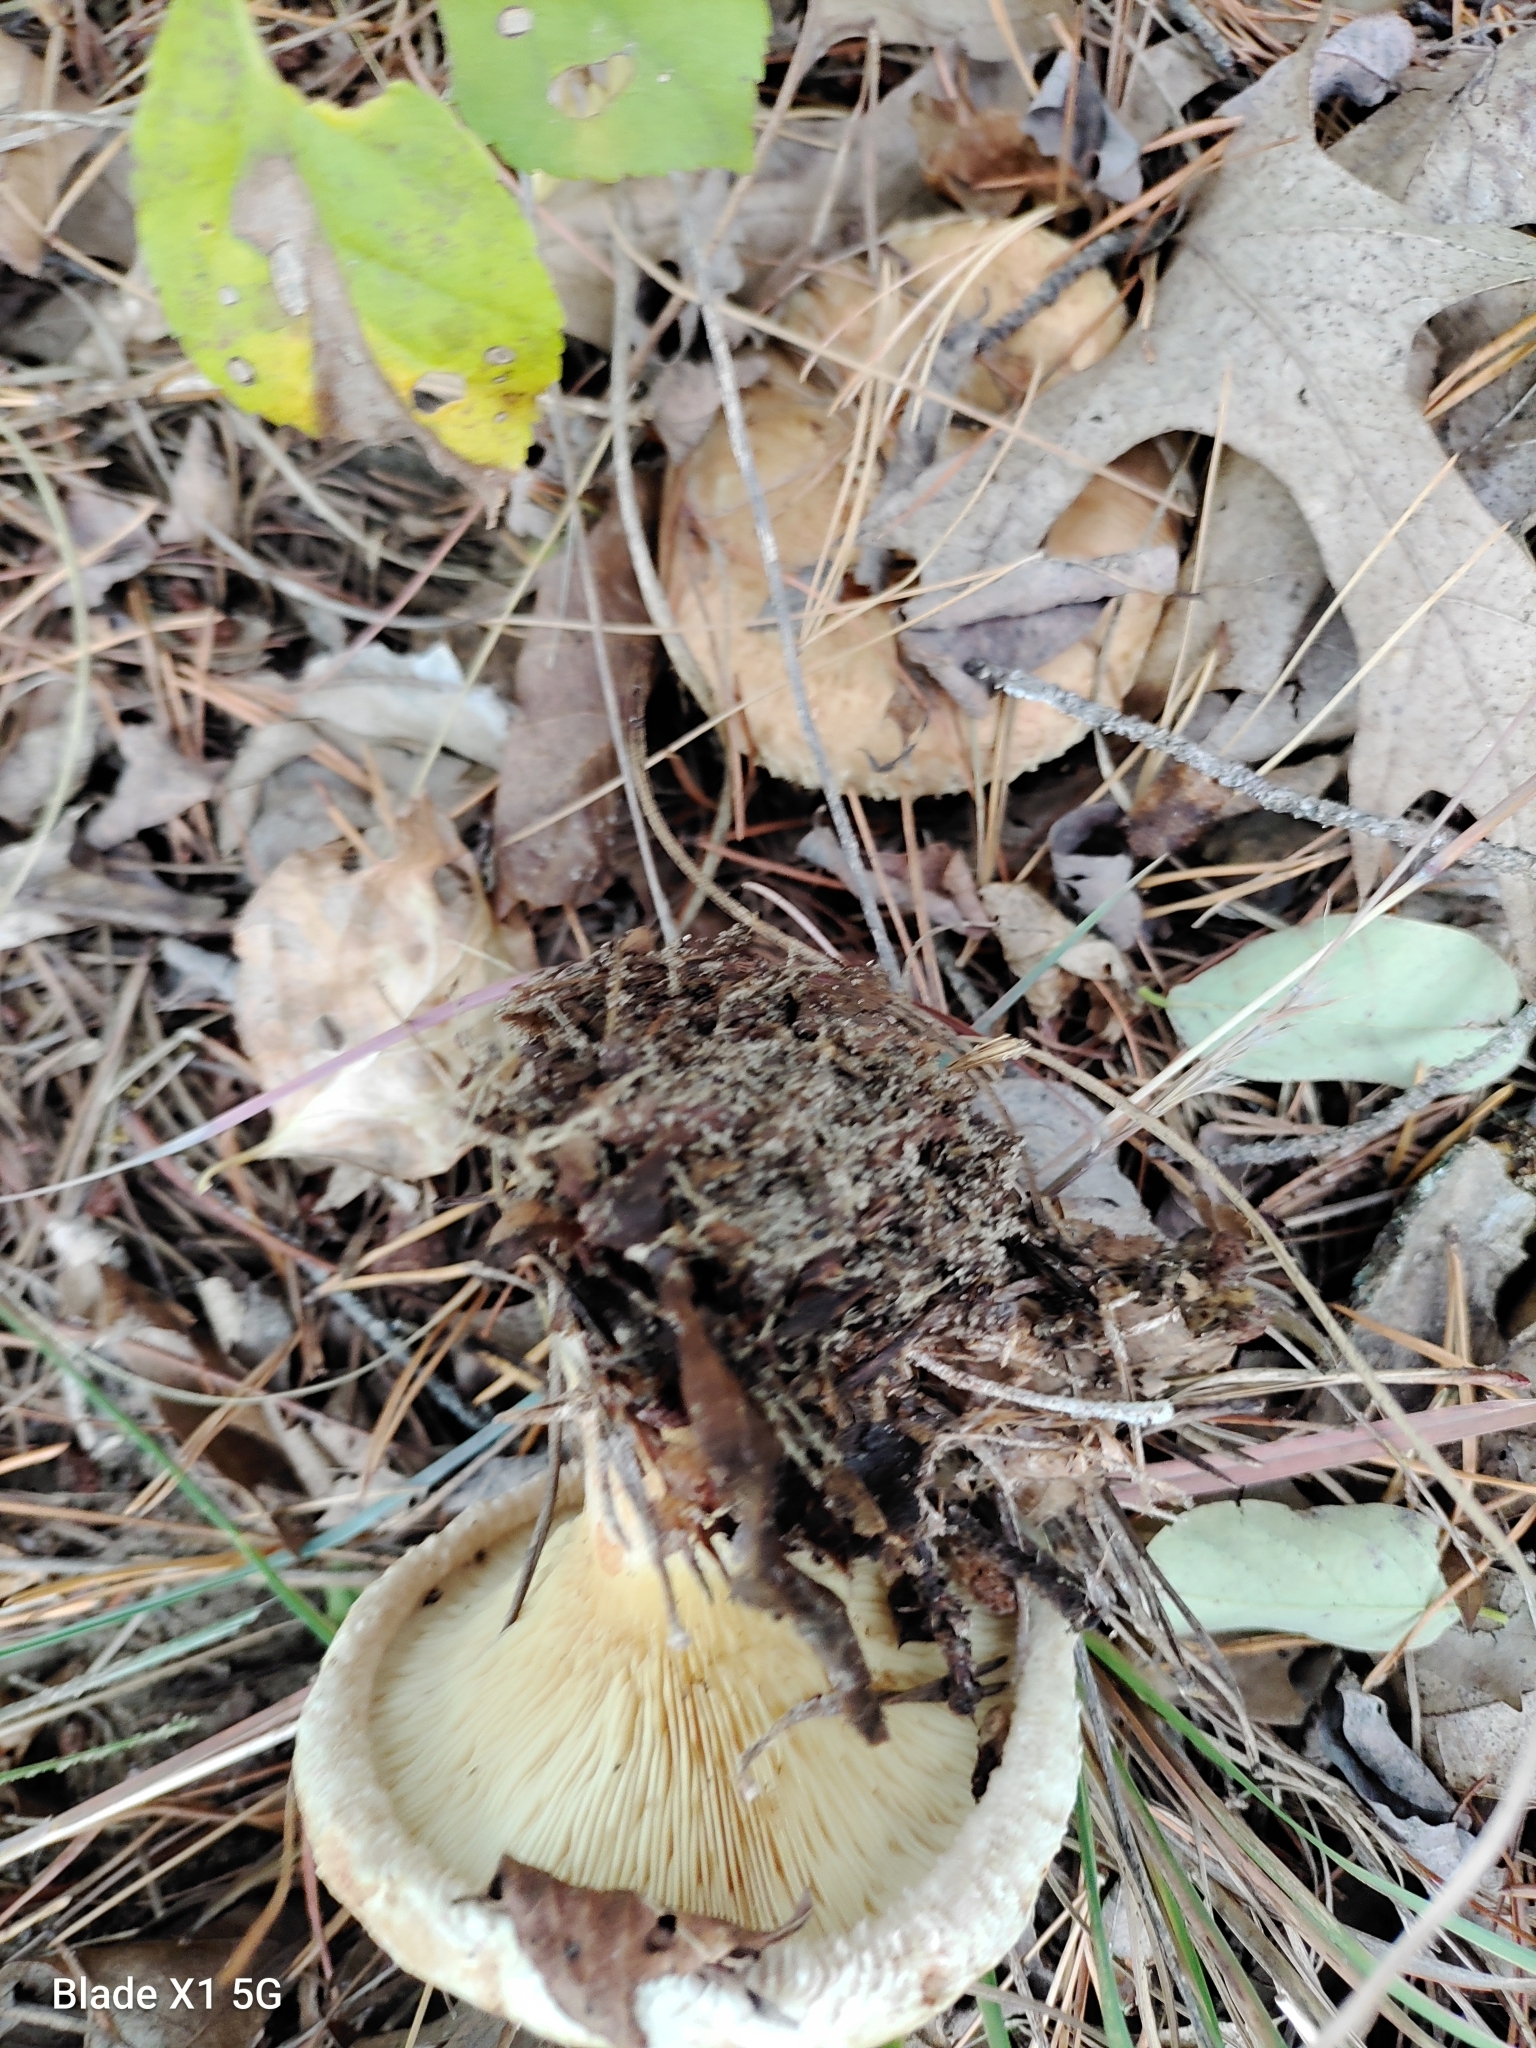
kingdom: Fungi
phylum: Basidiomycota
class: Agaricomycetes
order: Boletales
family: Paxillaceae
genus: Paxillus
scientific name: Paxillus involutus
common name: Brown roll rim
